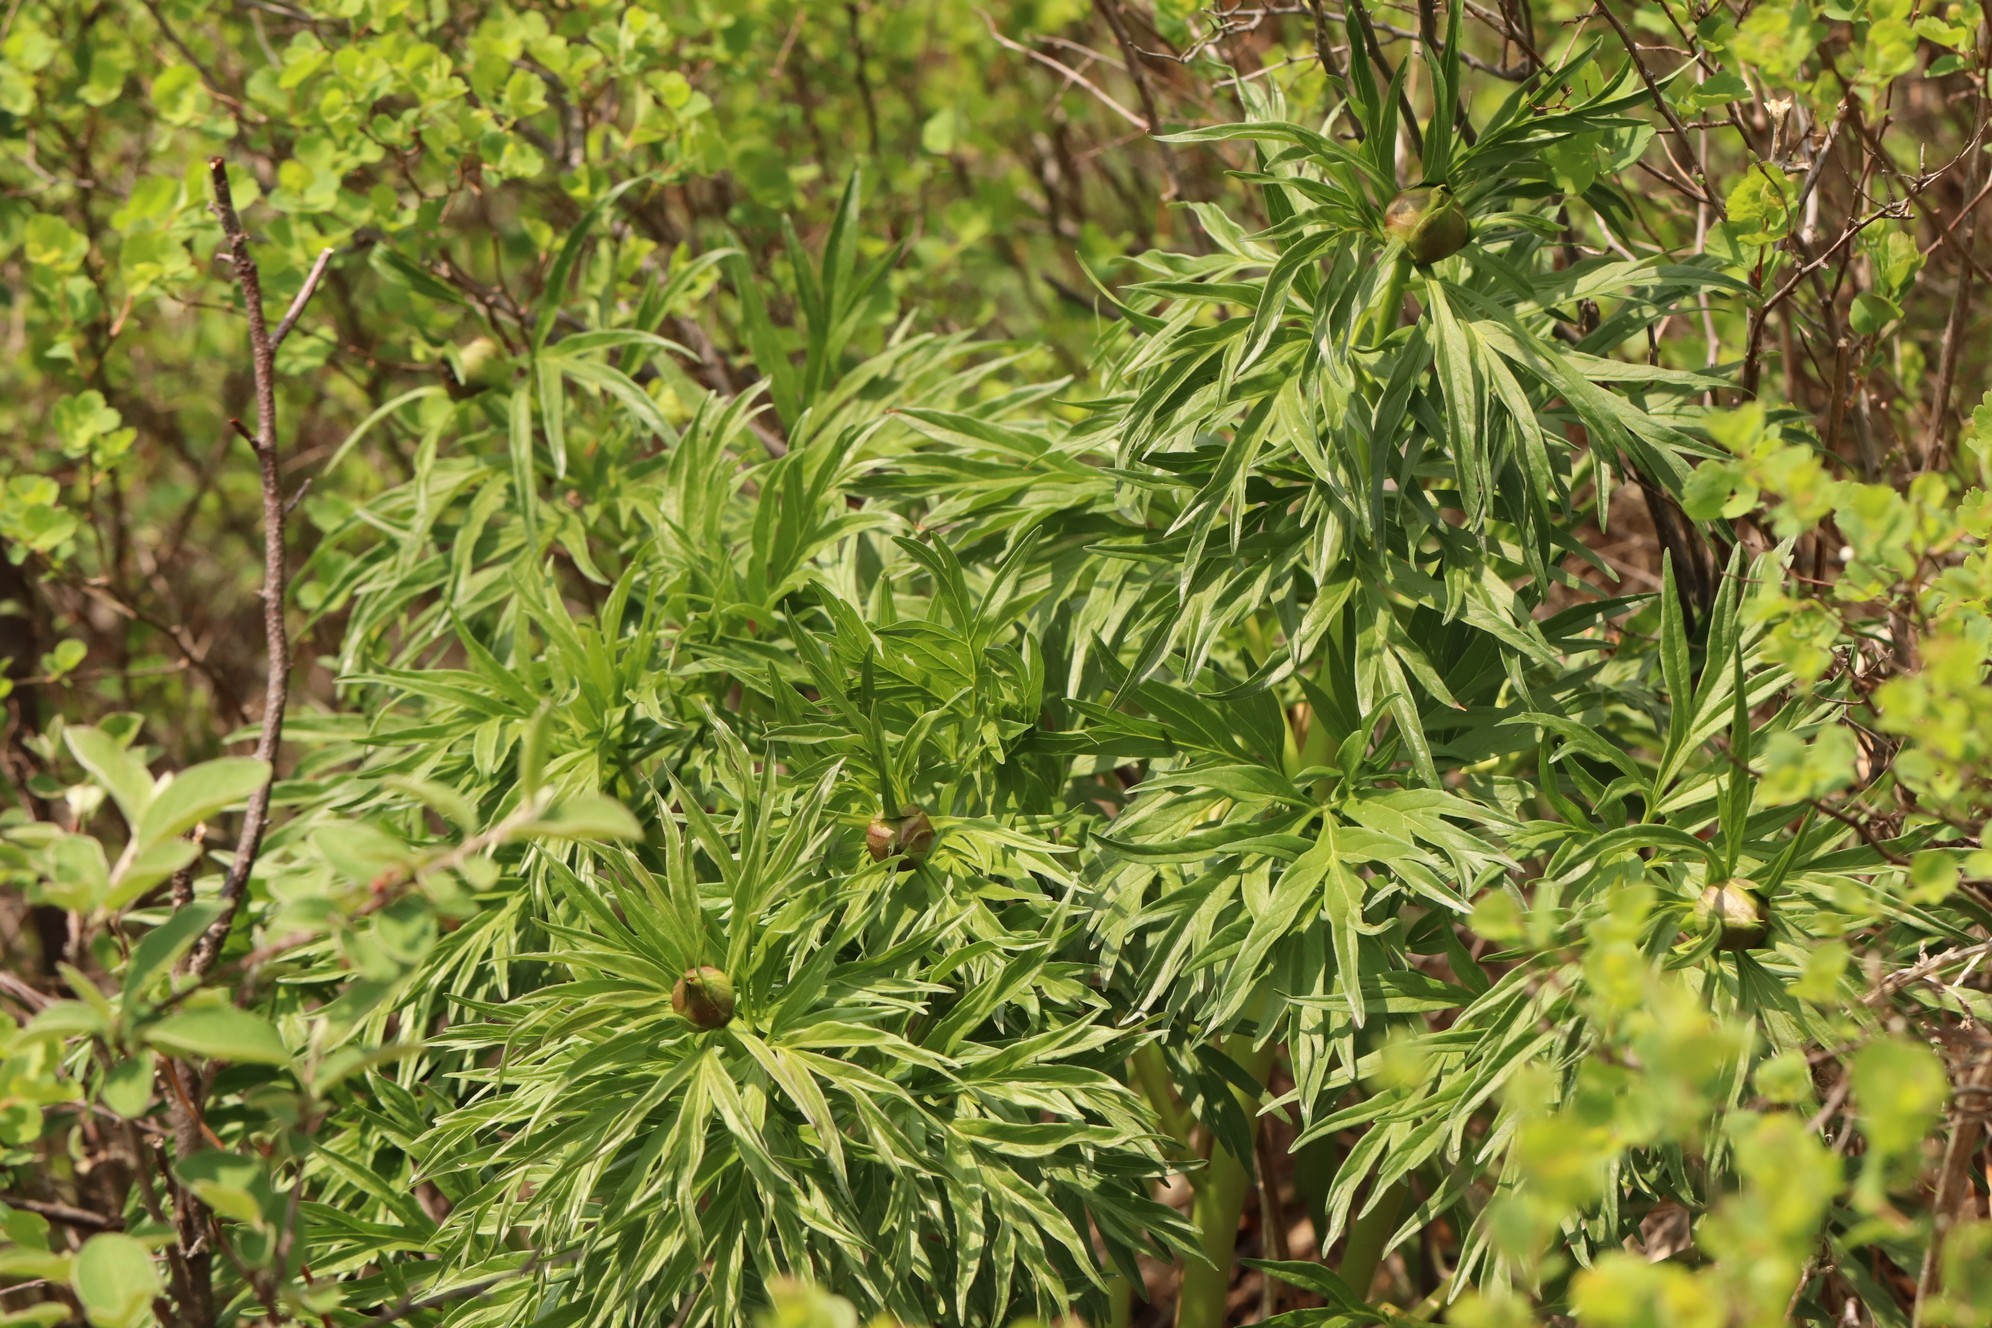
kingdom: Plantae
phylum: Tracheophyta
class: Magnoliopsida
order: Saxifragales
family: Paeoniaceae
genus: Paeonia
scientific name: Paeonia anomala
